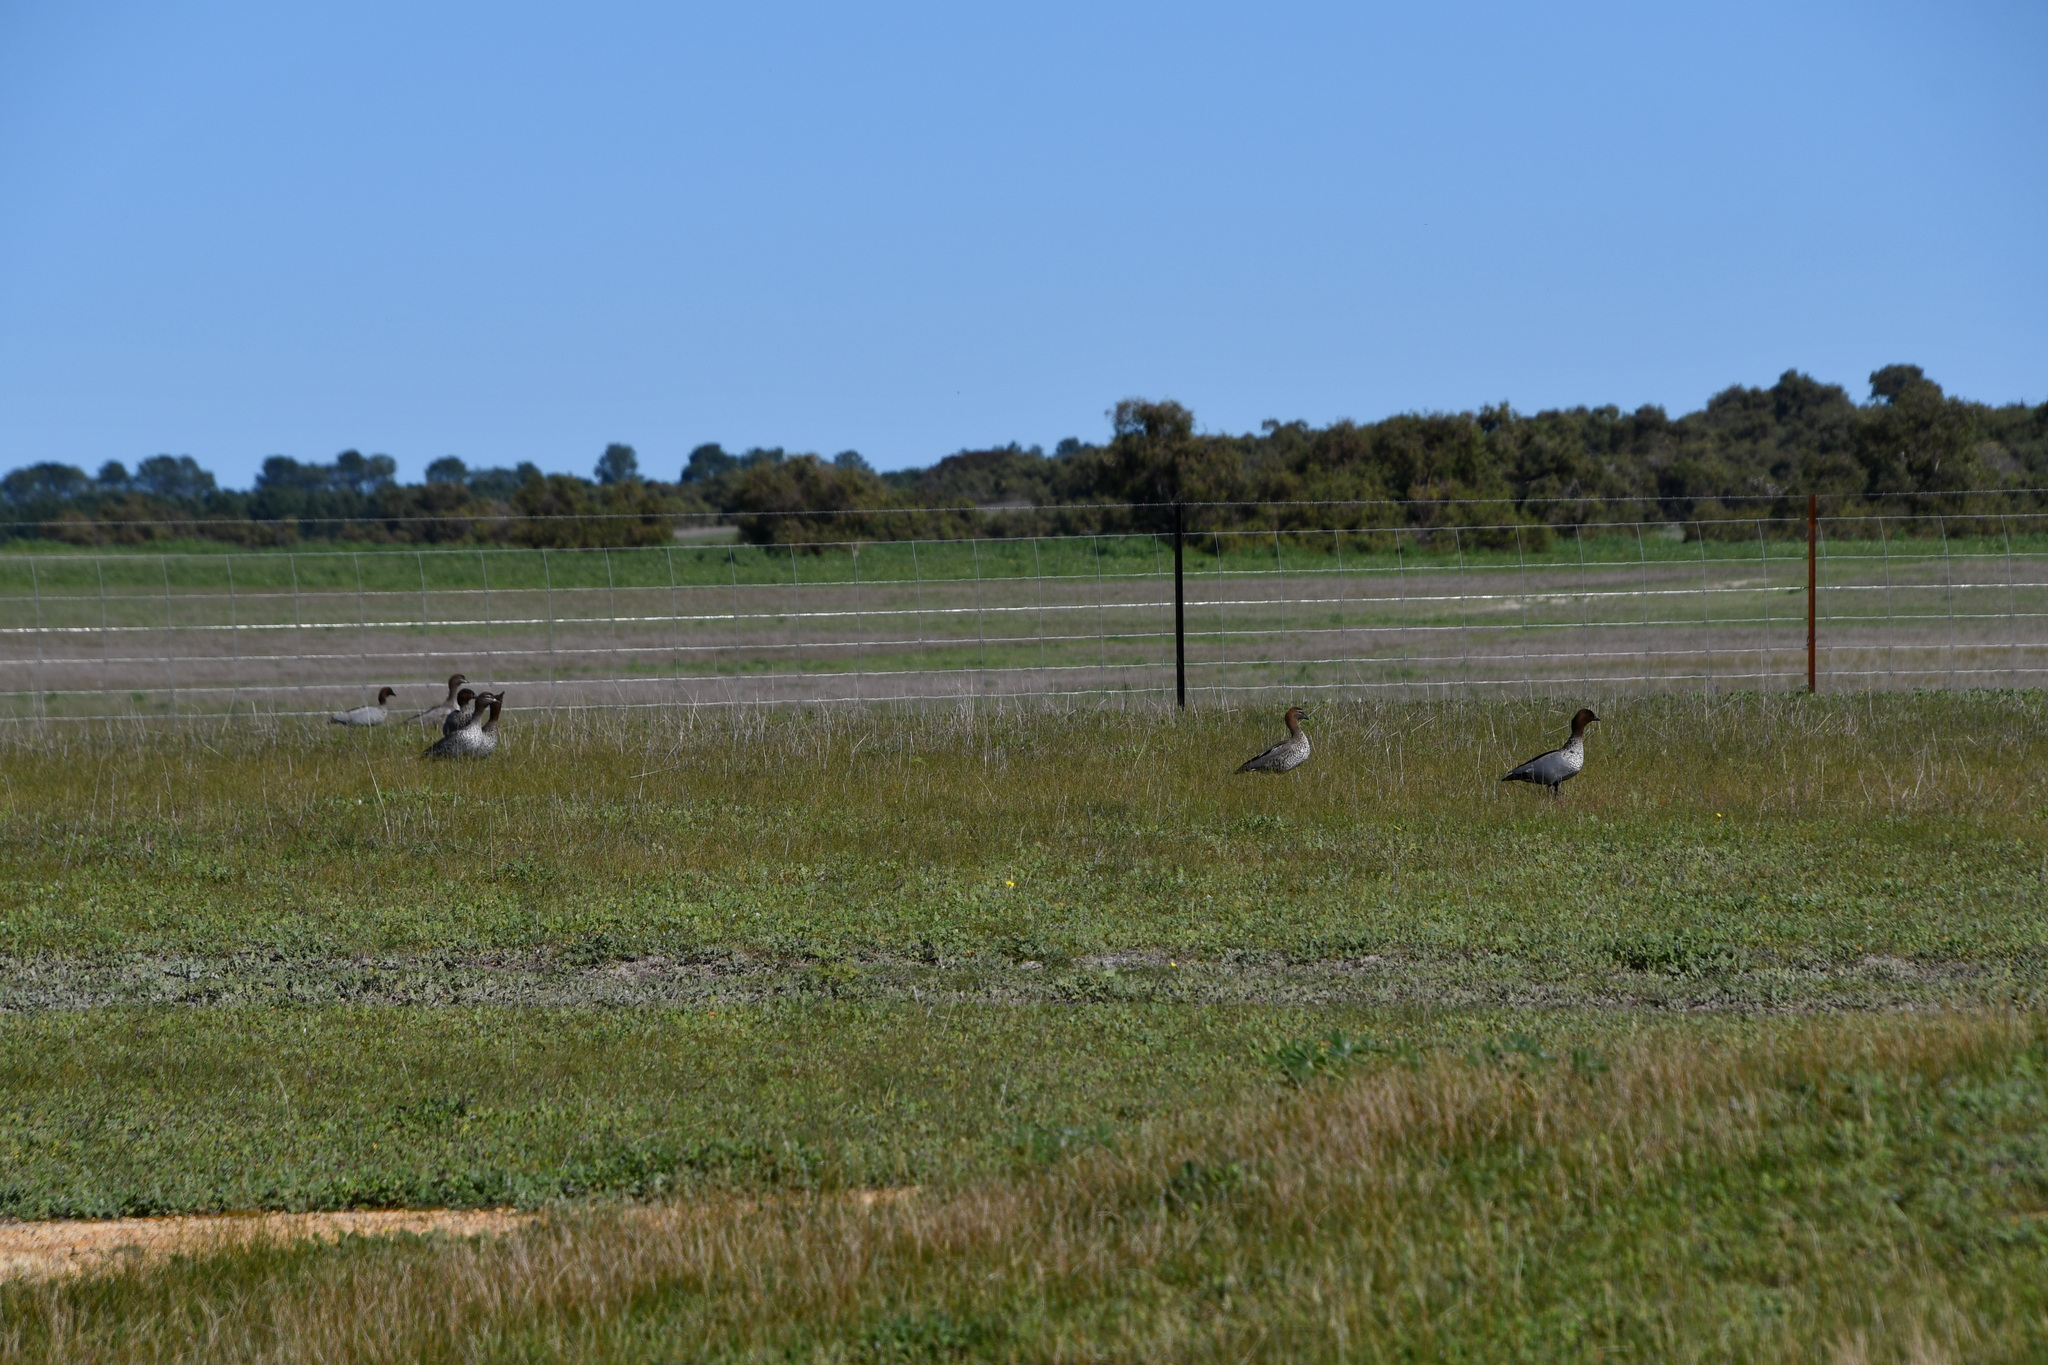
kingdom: Animalia
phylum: Chordata
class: Aves
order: Anseriformes
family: Anatidae
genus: Chenonetta
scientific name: Chenonetta jubata
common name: Maned duck
